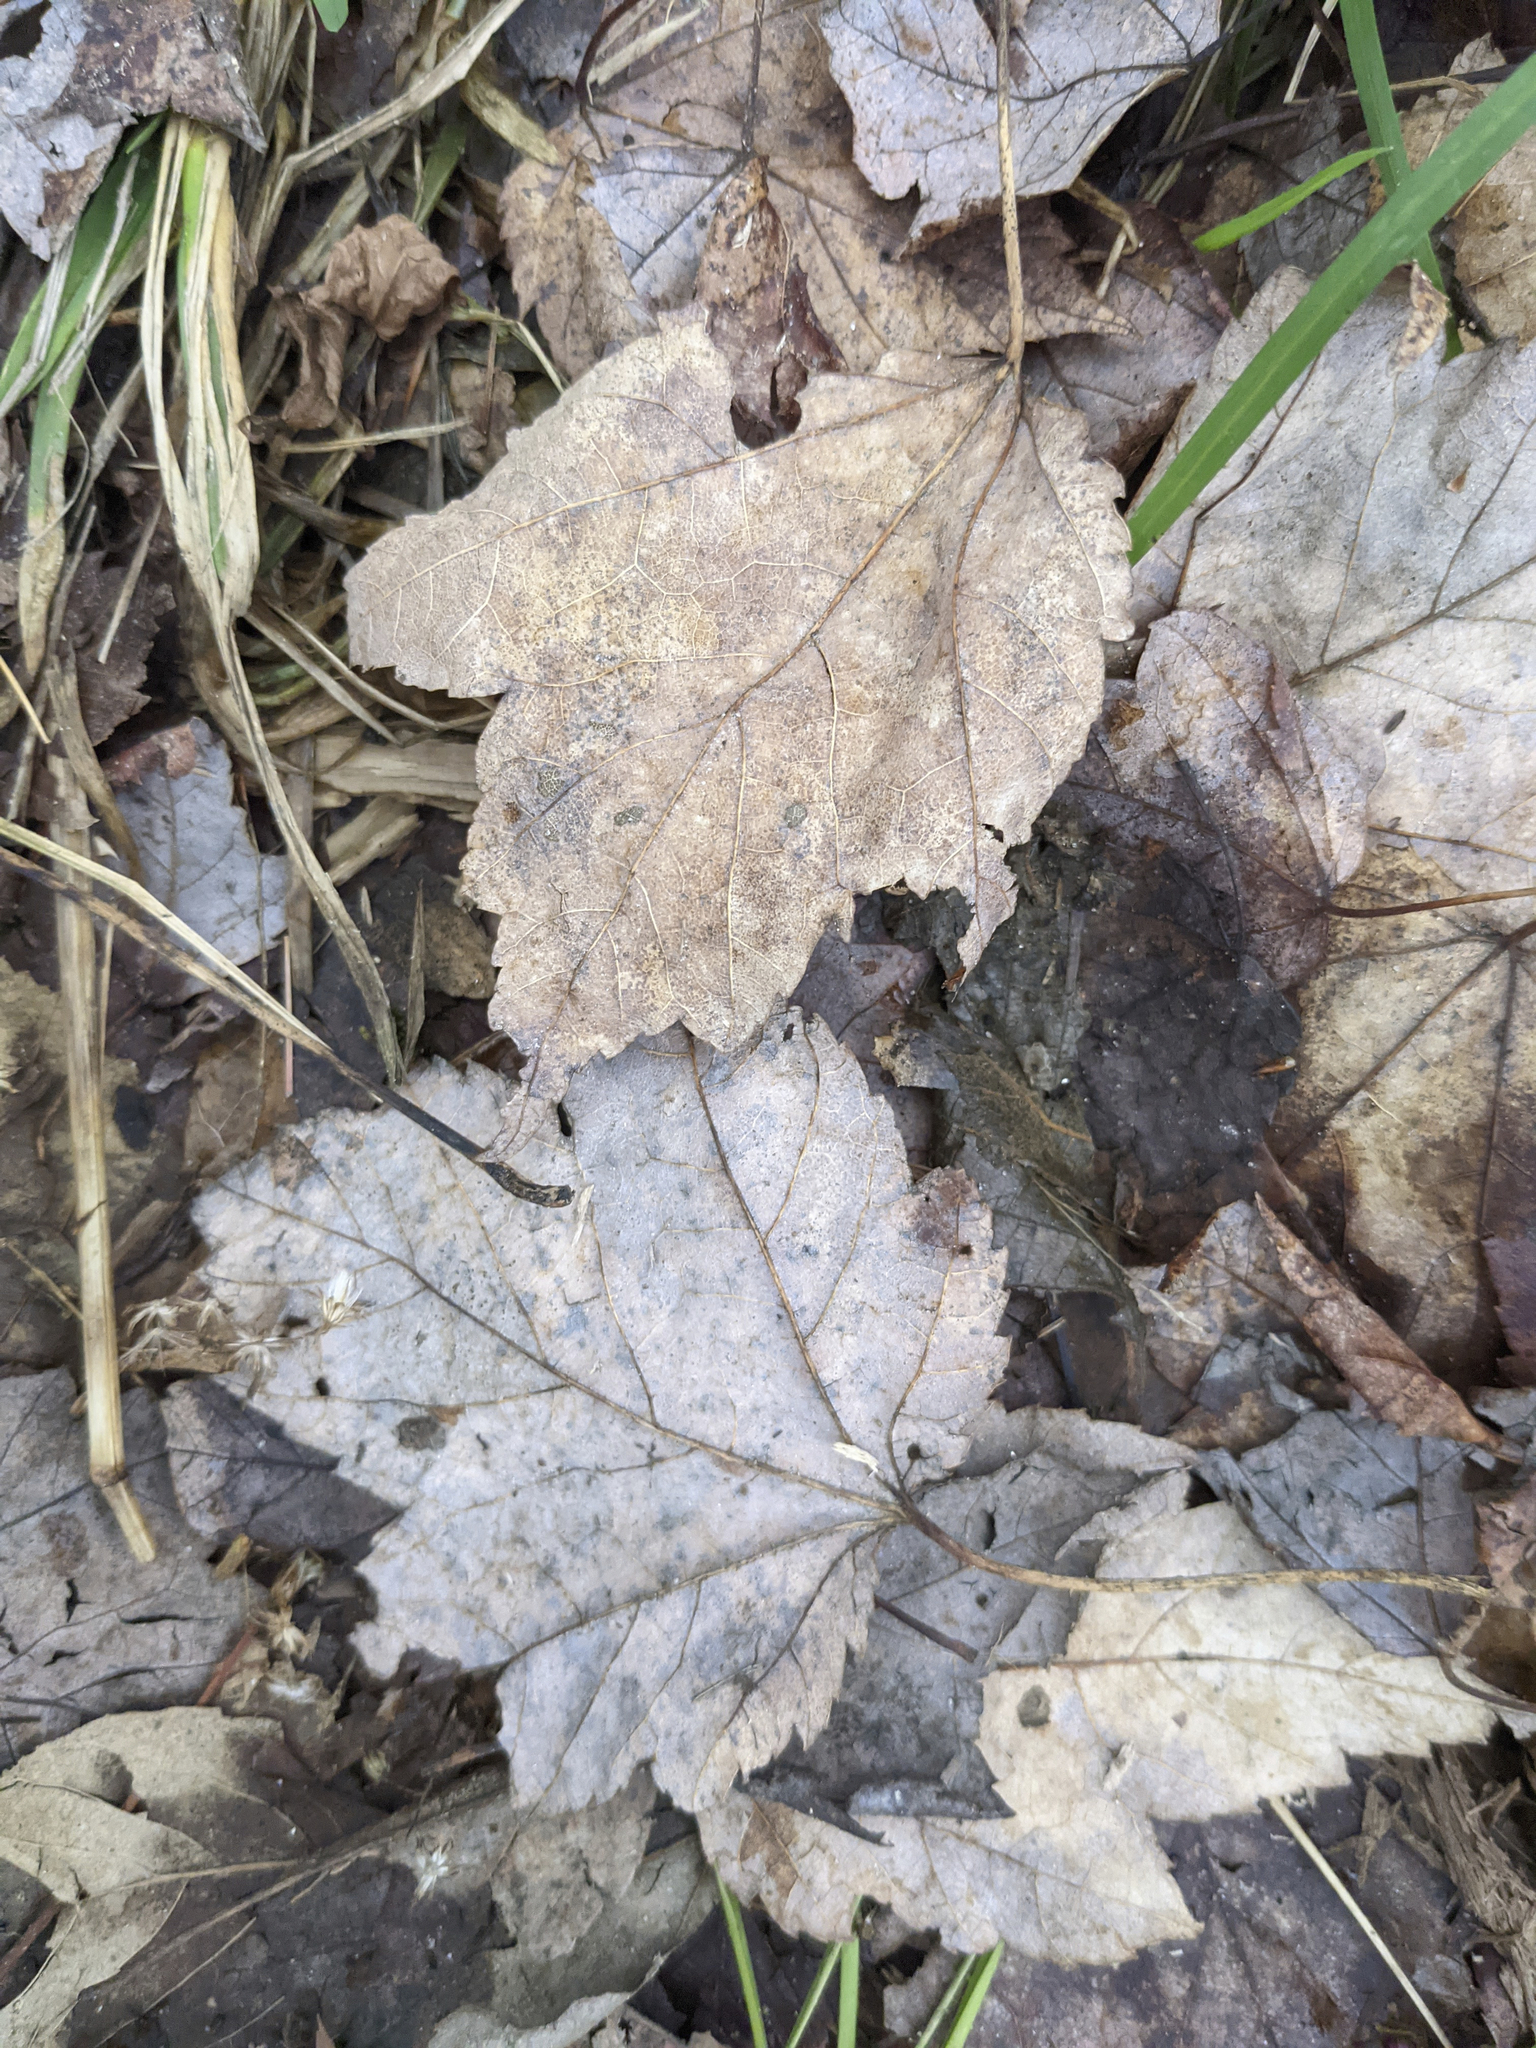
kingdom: Plantae
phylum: Tracheophyta
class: Magnoliopsida
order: Sapindales
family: Sapindaceae
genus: Acer
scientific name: Acer rubrum
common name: Red maple
